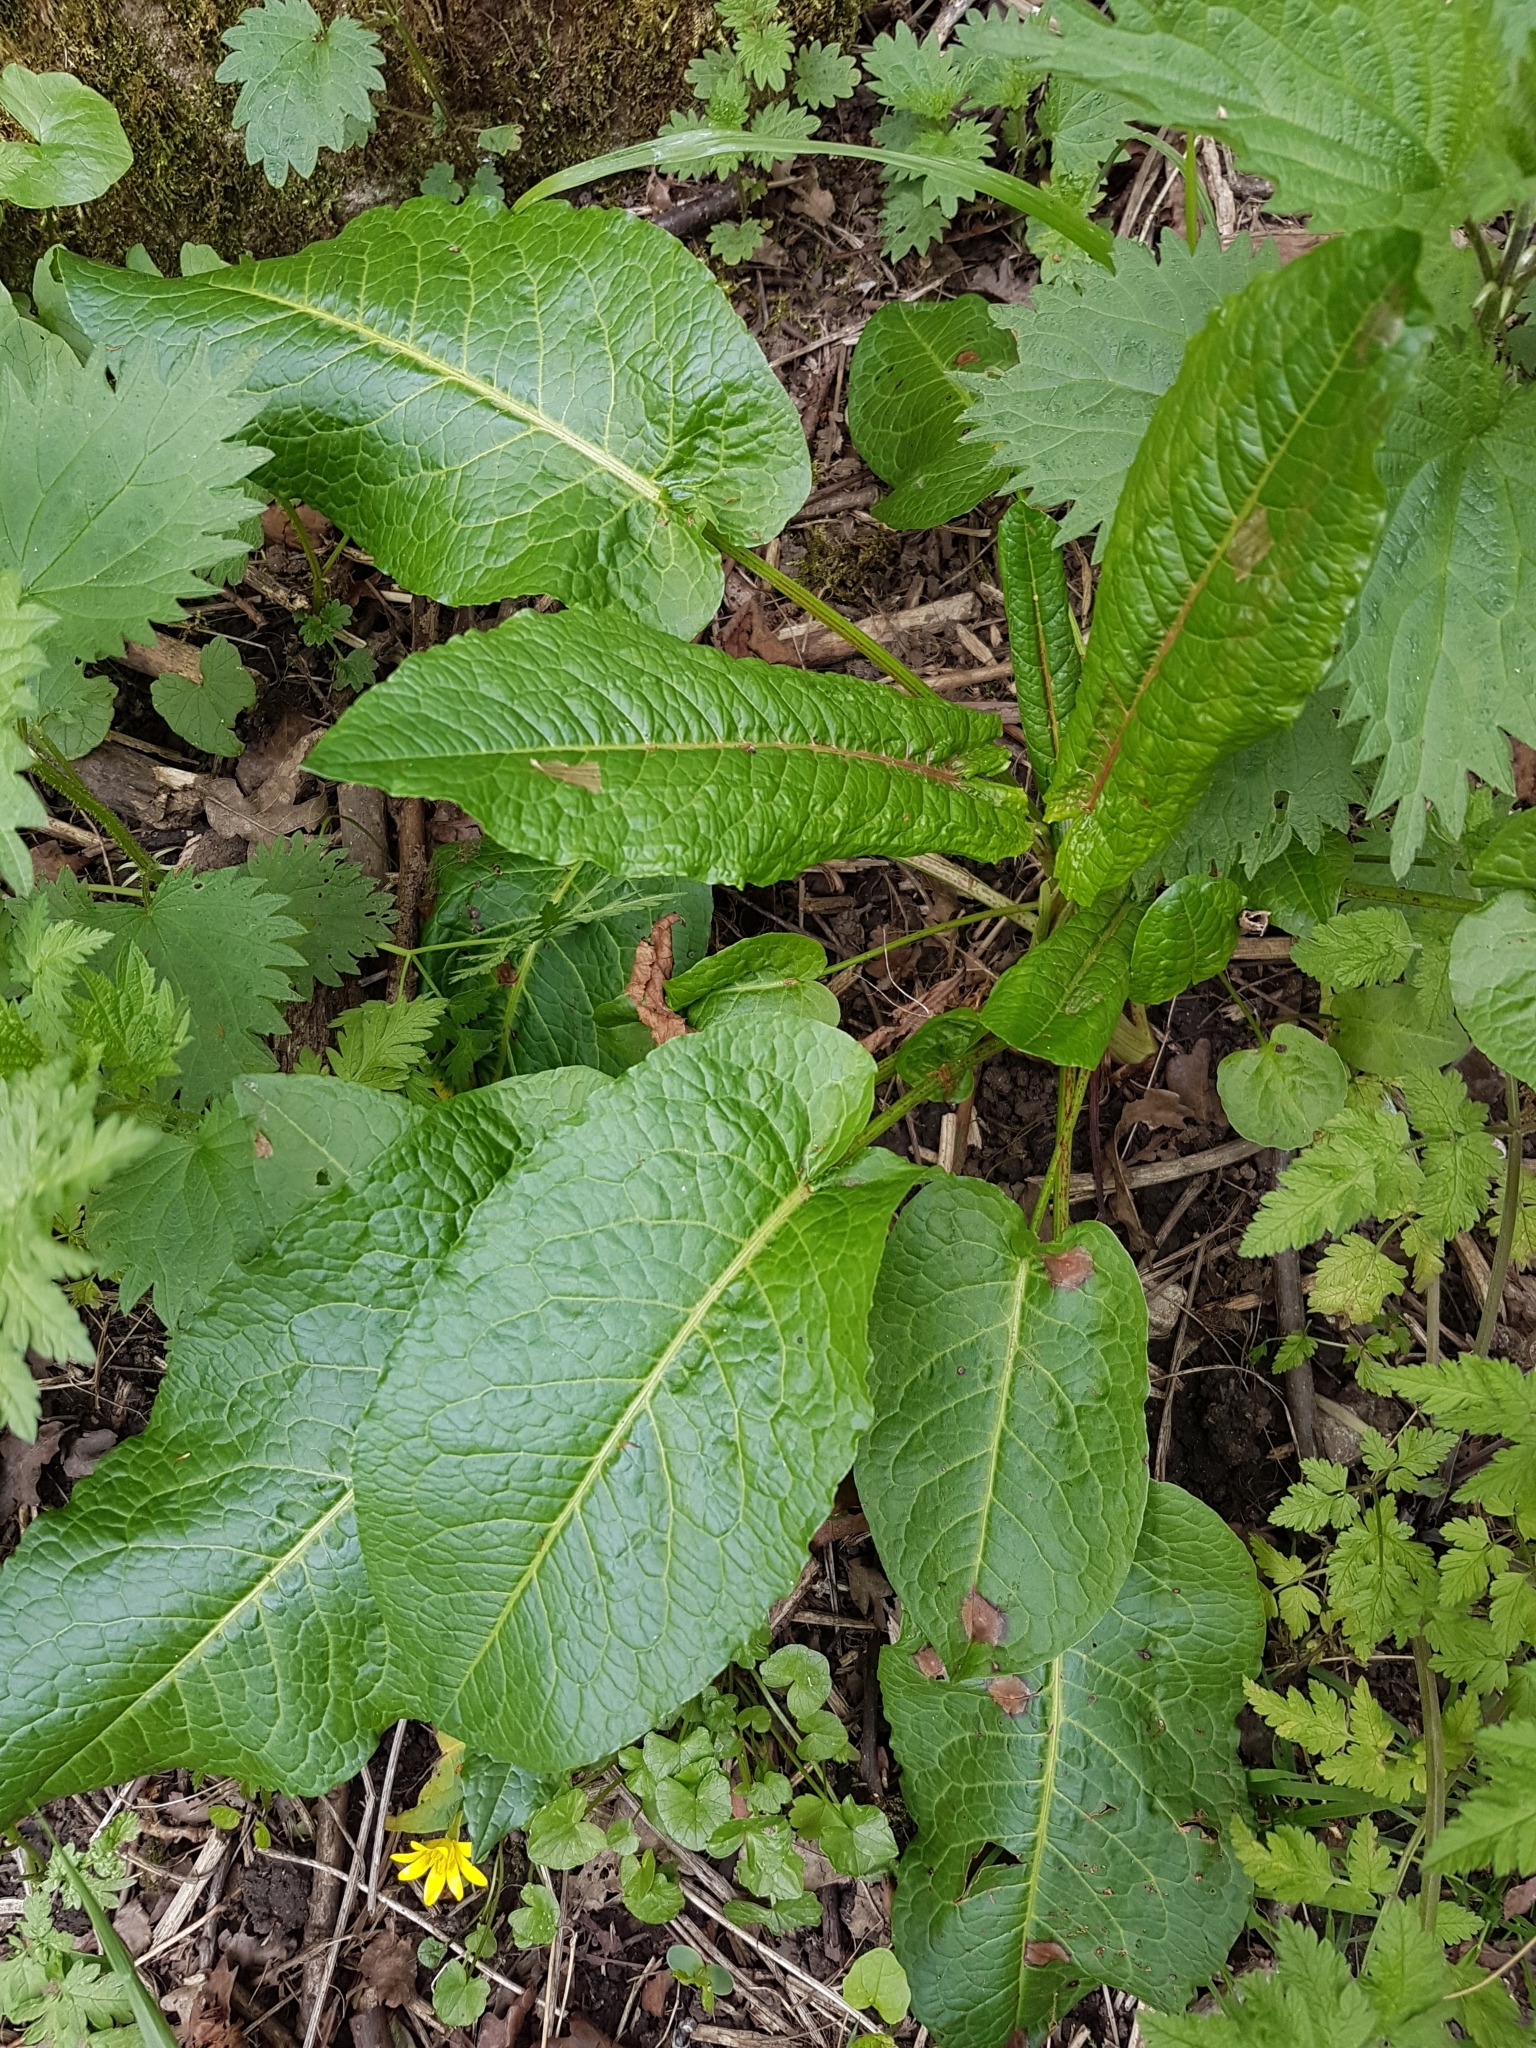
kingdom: Plantae
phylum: Tracheophyta
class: Magnoliopsida
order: Caryophyllales
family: Polygonaceae
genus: Rumex
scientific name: Rumex obtusifolius
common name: Bitter dock
